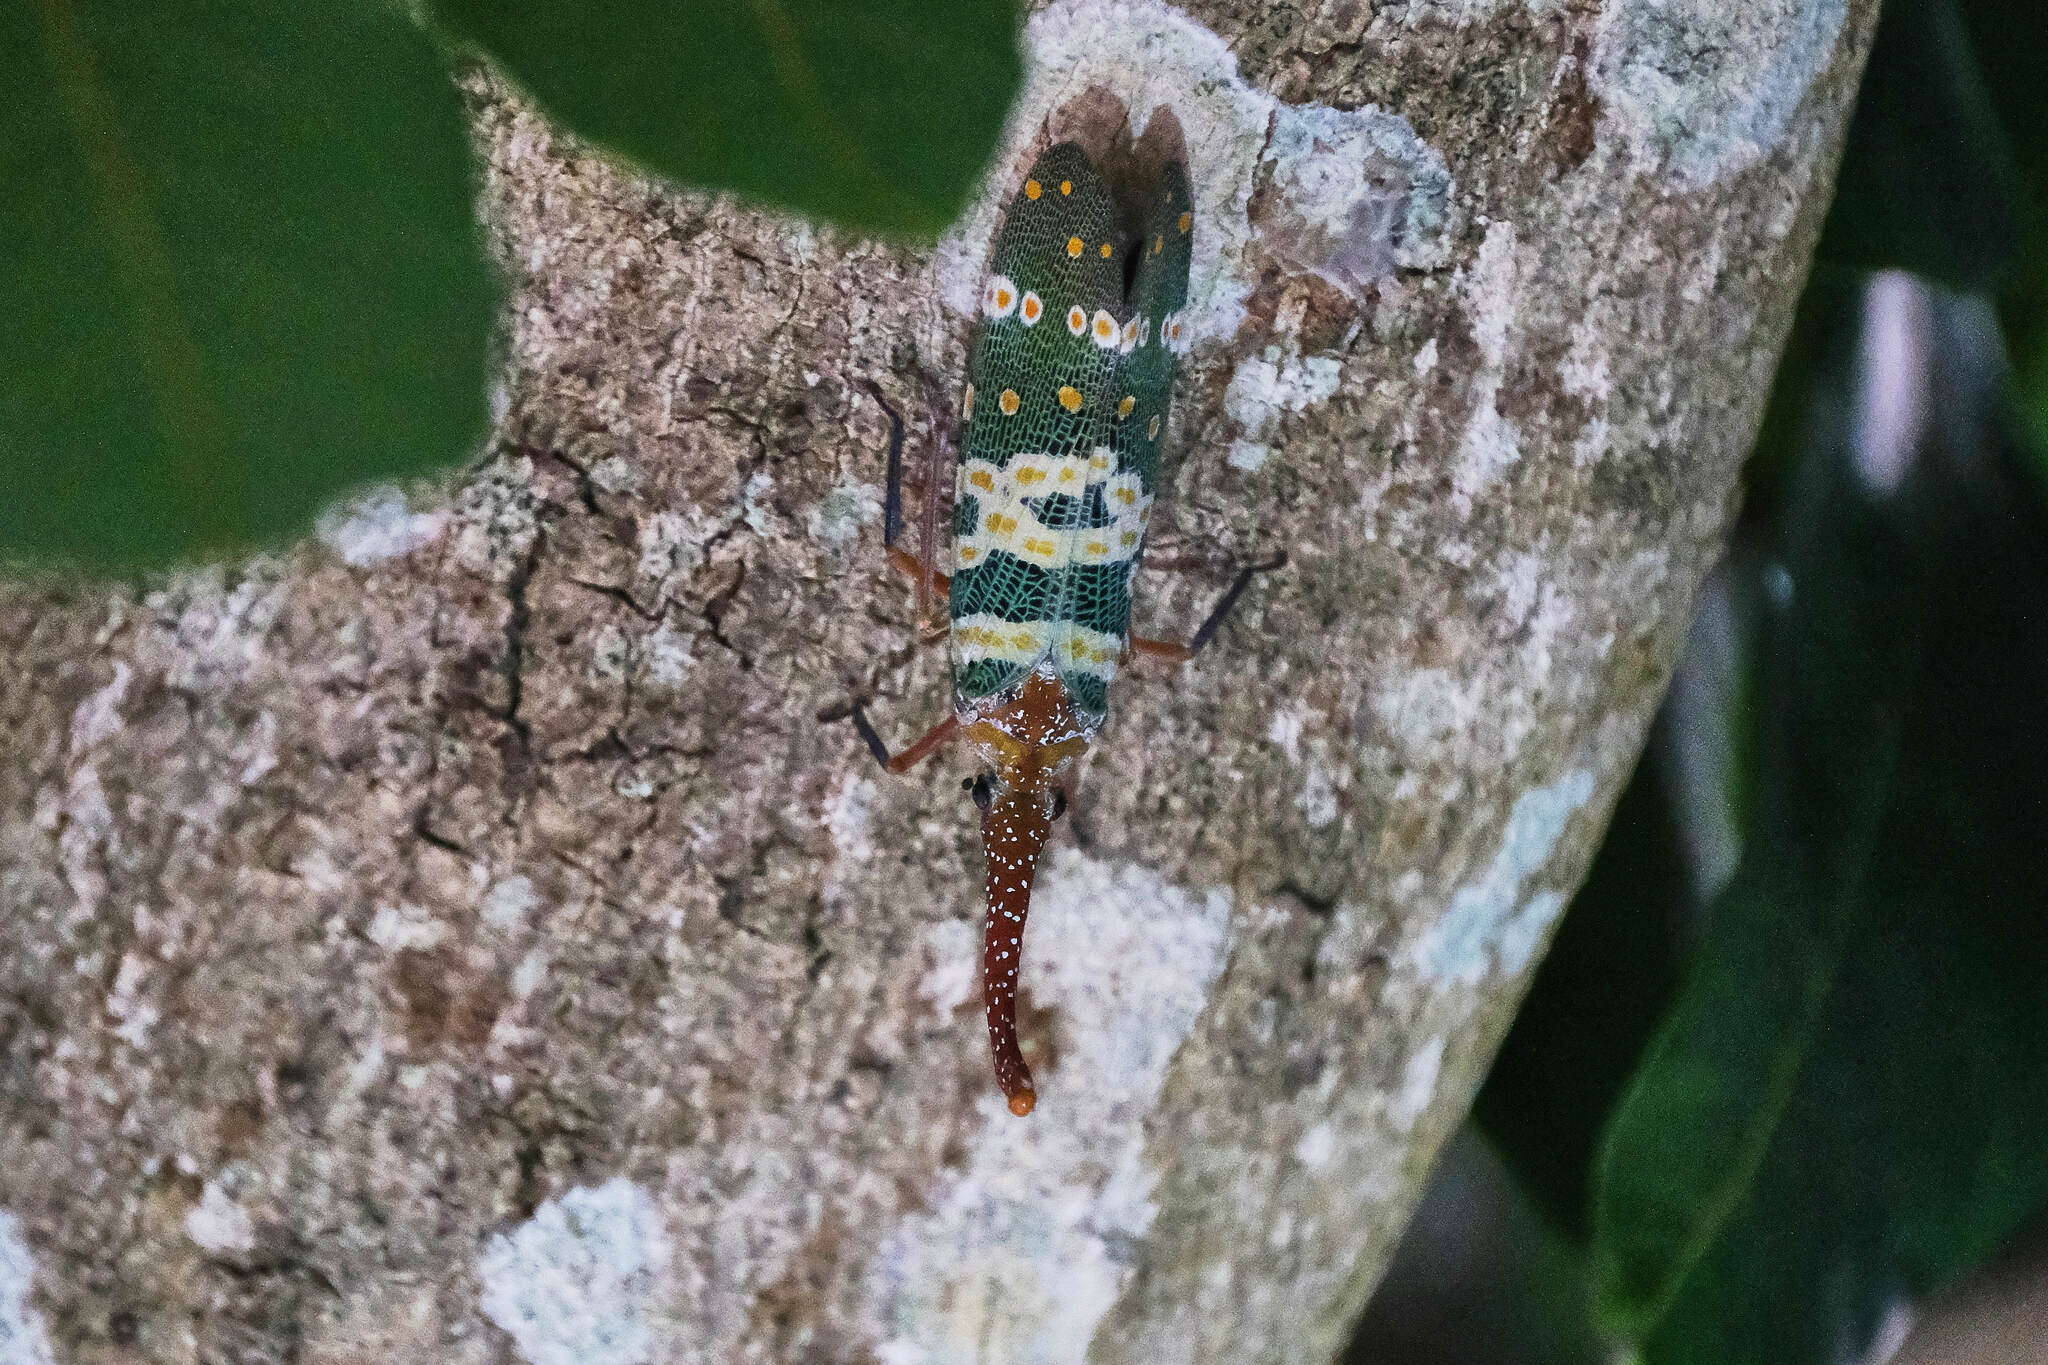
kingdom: Animalia
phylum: Arthropoda
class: Insecta
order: Hemiptera
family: Fulgoridae
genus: Pyrops
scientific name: Pyrops candelaria
